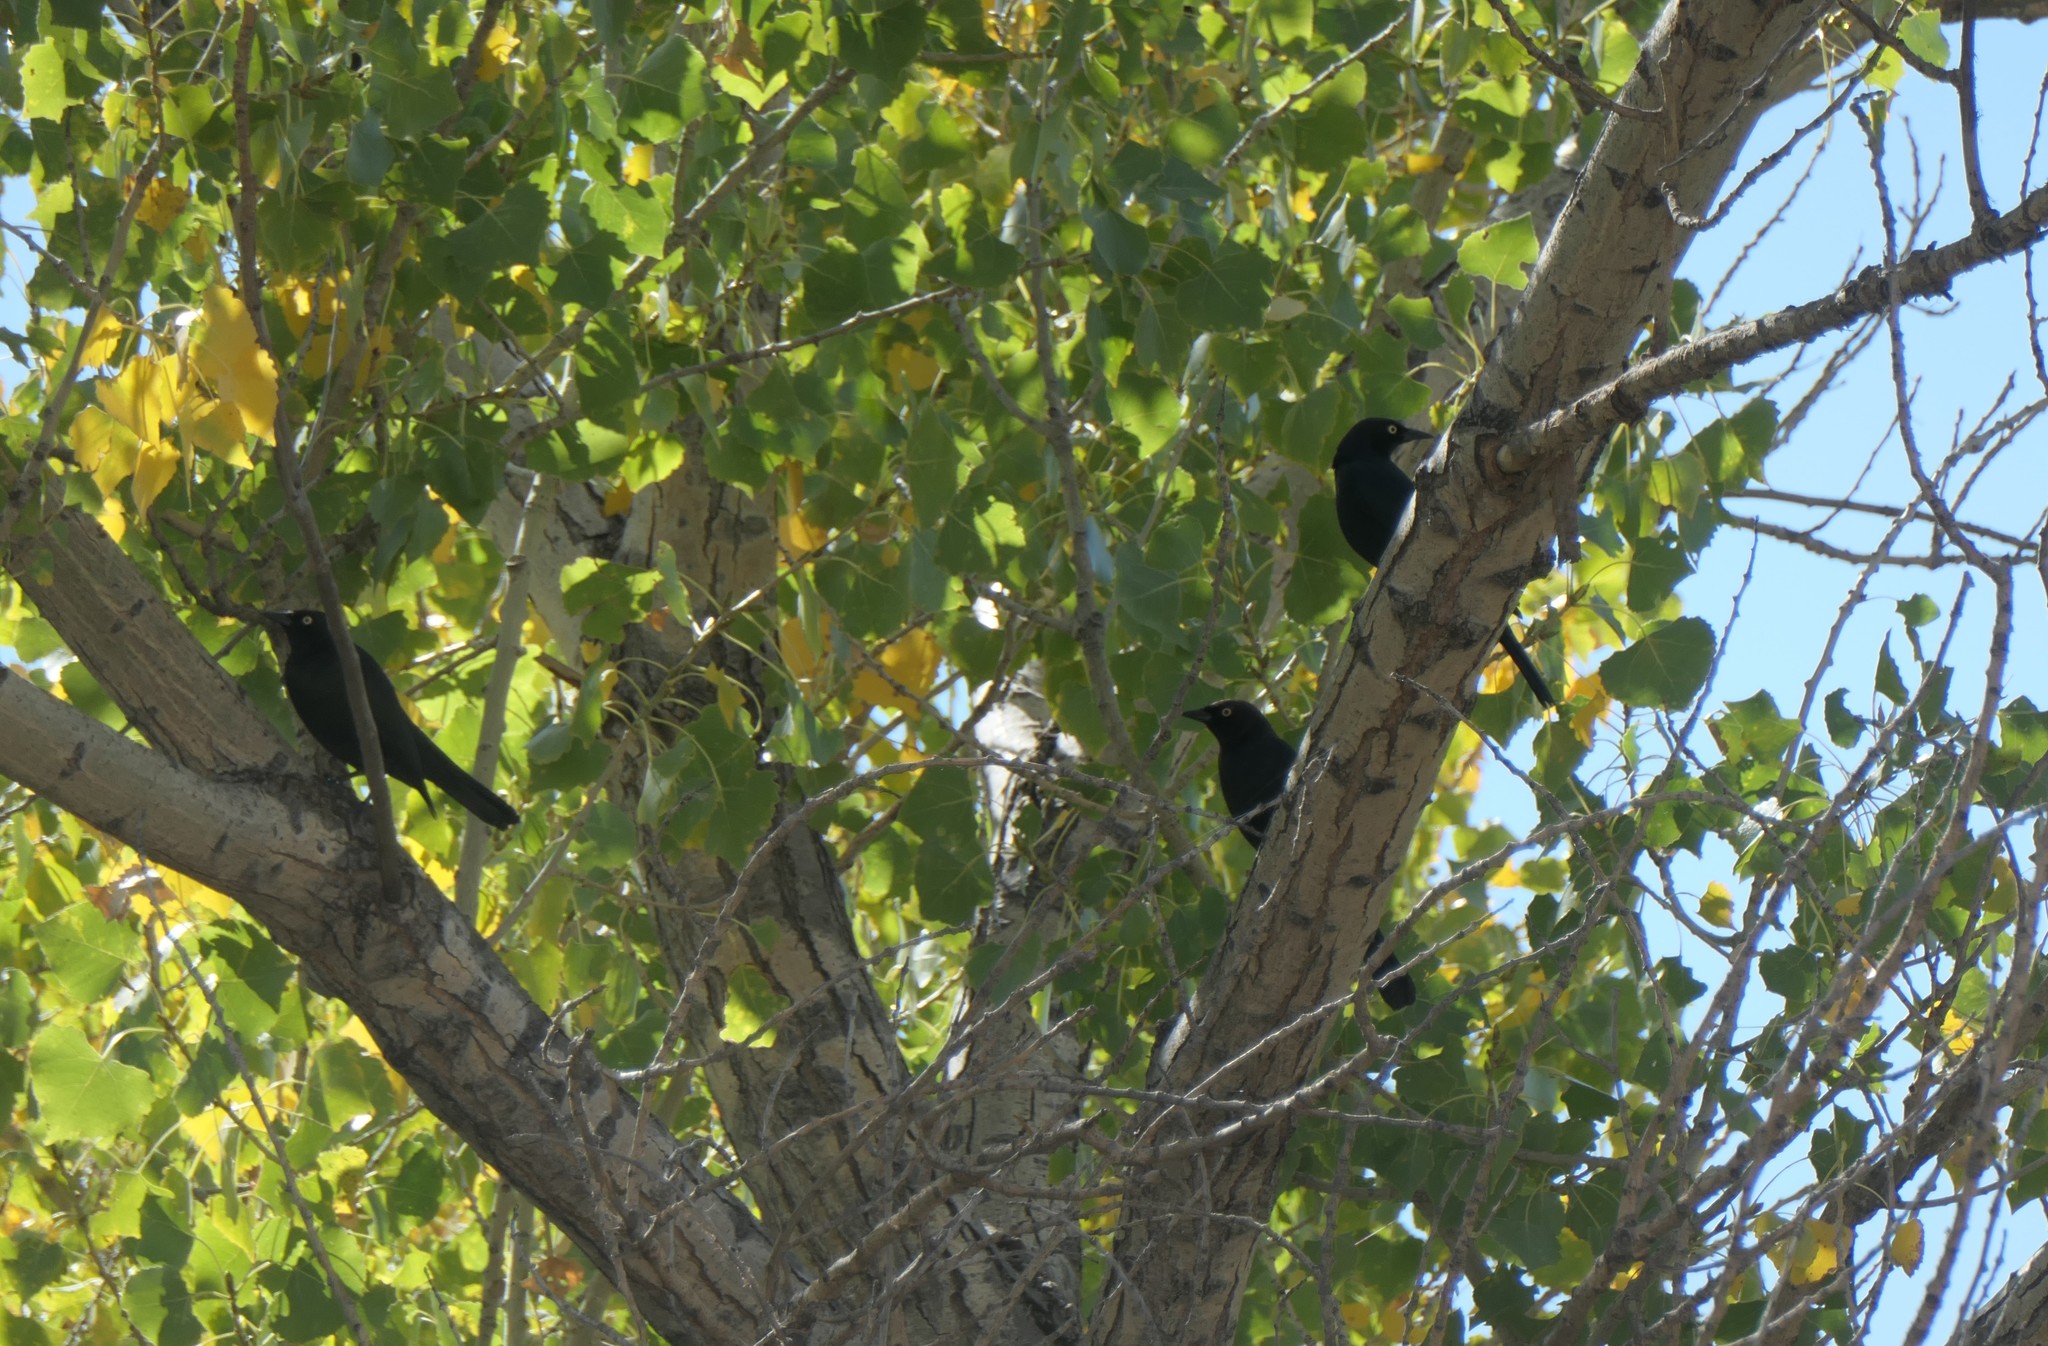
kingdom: Animalia
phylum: Chordata
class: Aves
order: Passeriformes
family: Icteridae
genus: Euphagus
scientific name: Euphagus cyanocephalus
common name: Brewer's blackbird
